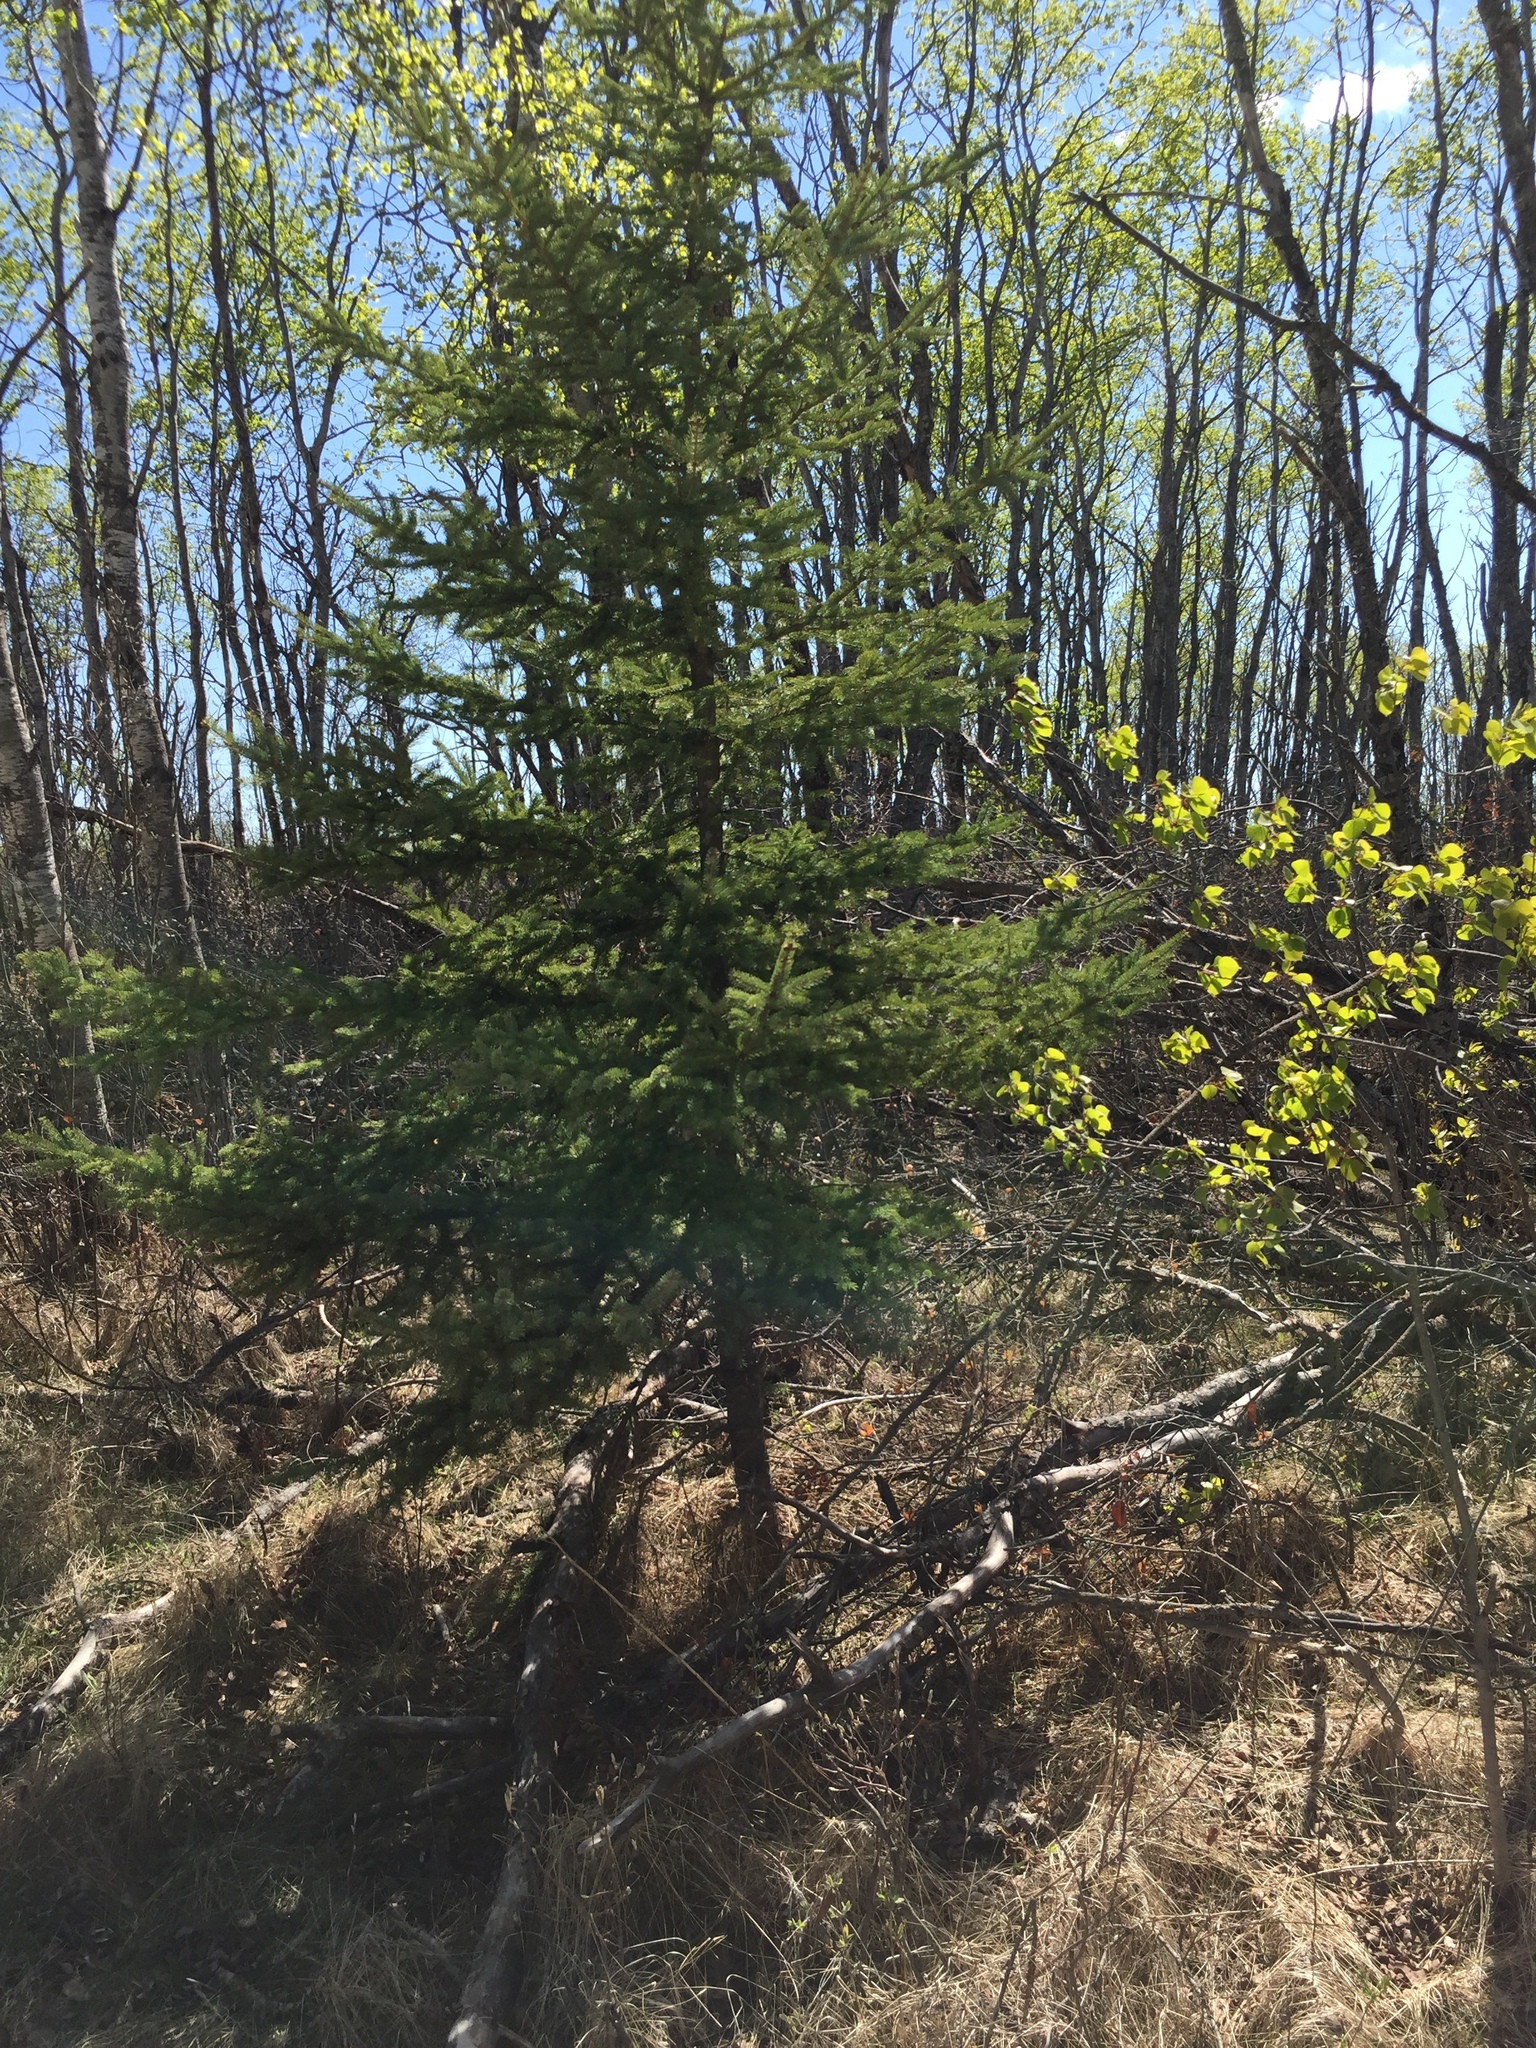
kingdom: Plantae
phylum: Tracheophyta
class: Pinopsida
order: Pinales
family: Pinaceae
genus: Picea
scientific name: Picea glauca
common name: White spruce
